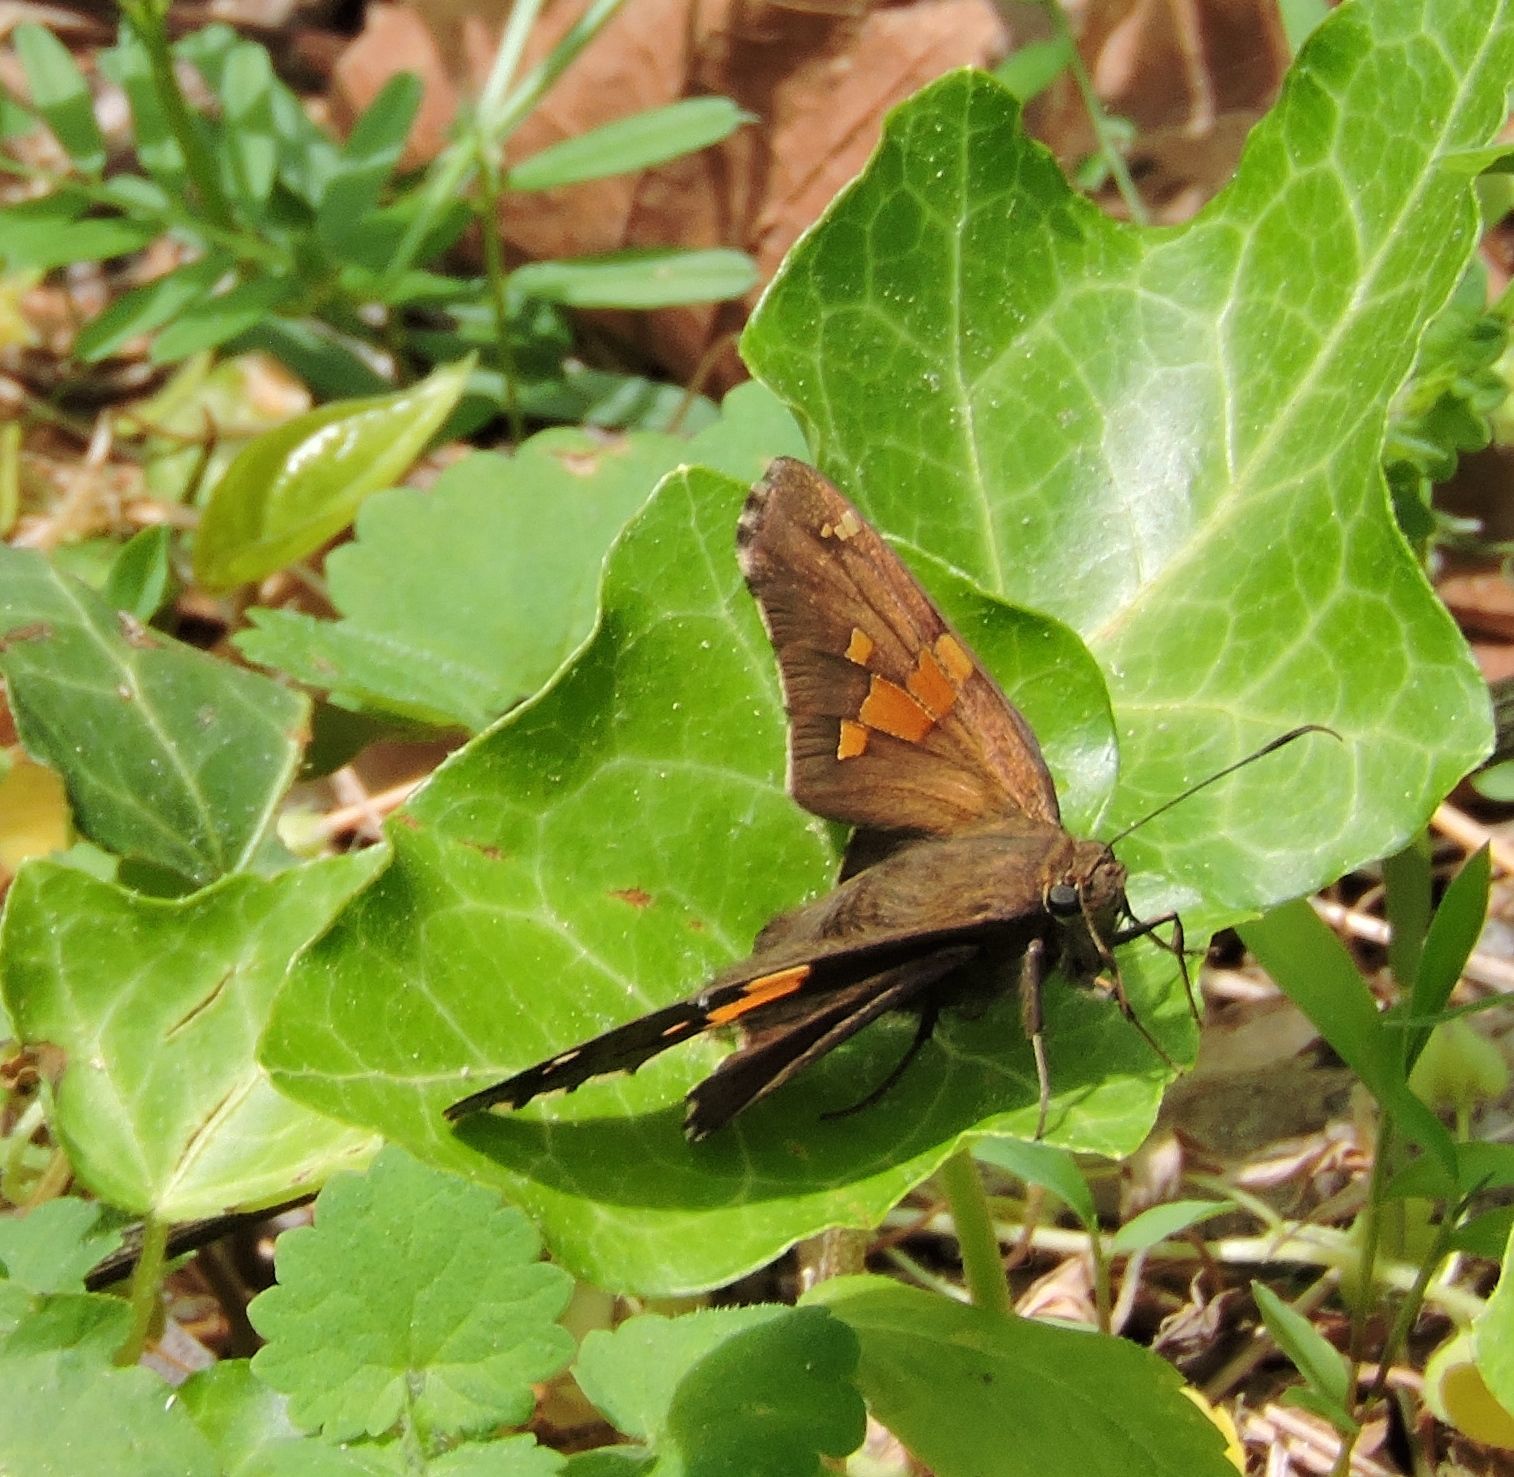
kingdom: Animalia
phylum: Arthropoda
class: Insecta
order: Lepidoptera
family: Hesperiidae
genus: Epargyreus
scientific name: Epargyreus clarus
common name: Silver-spotted skipper
